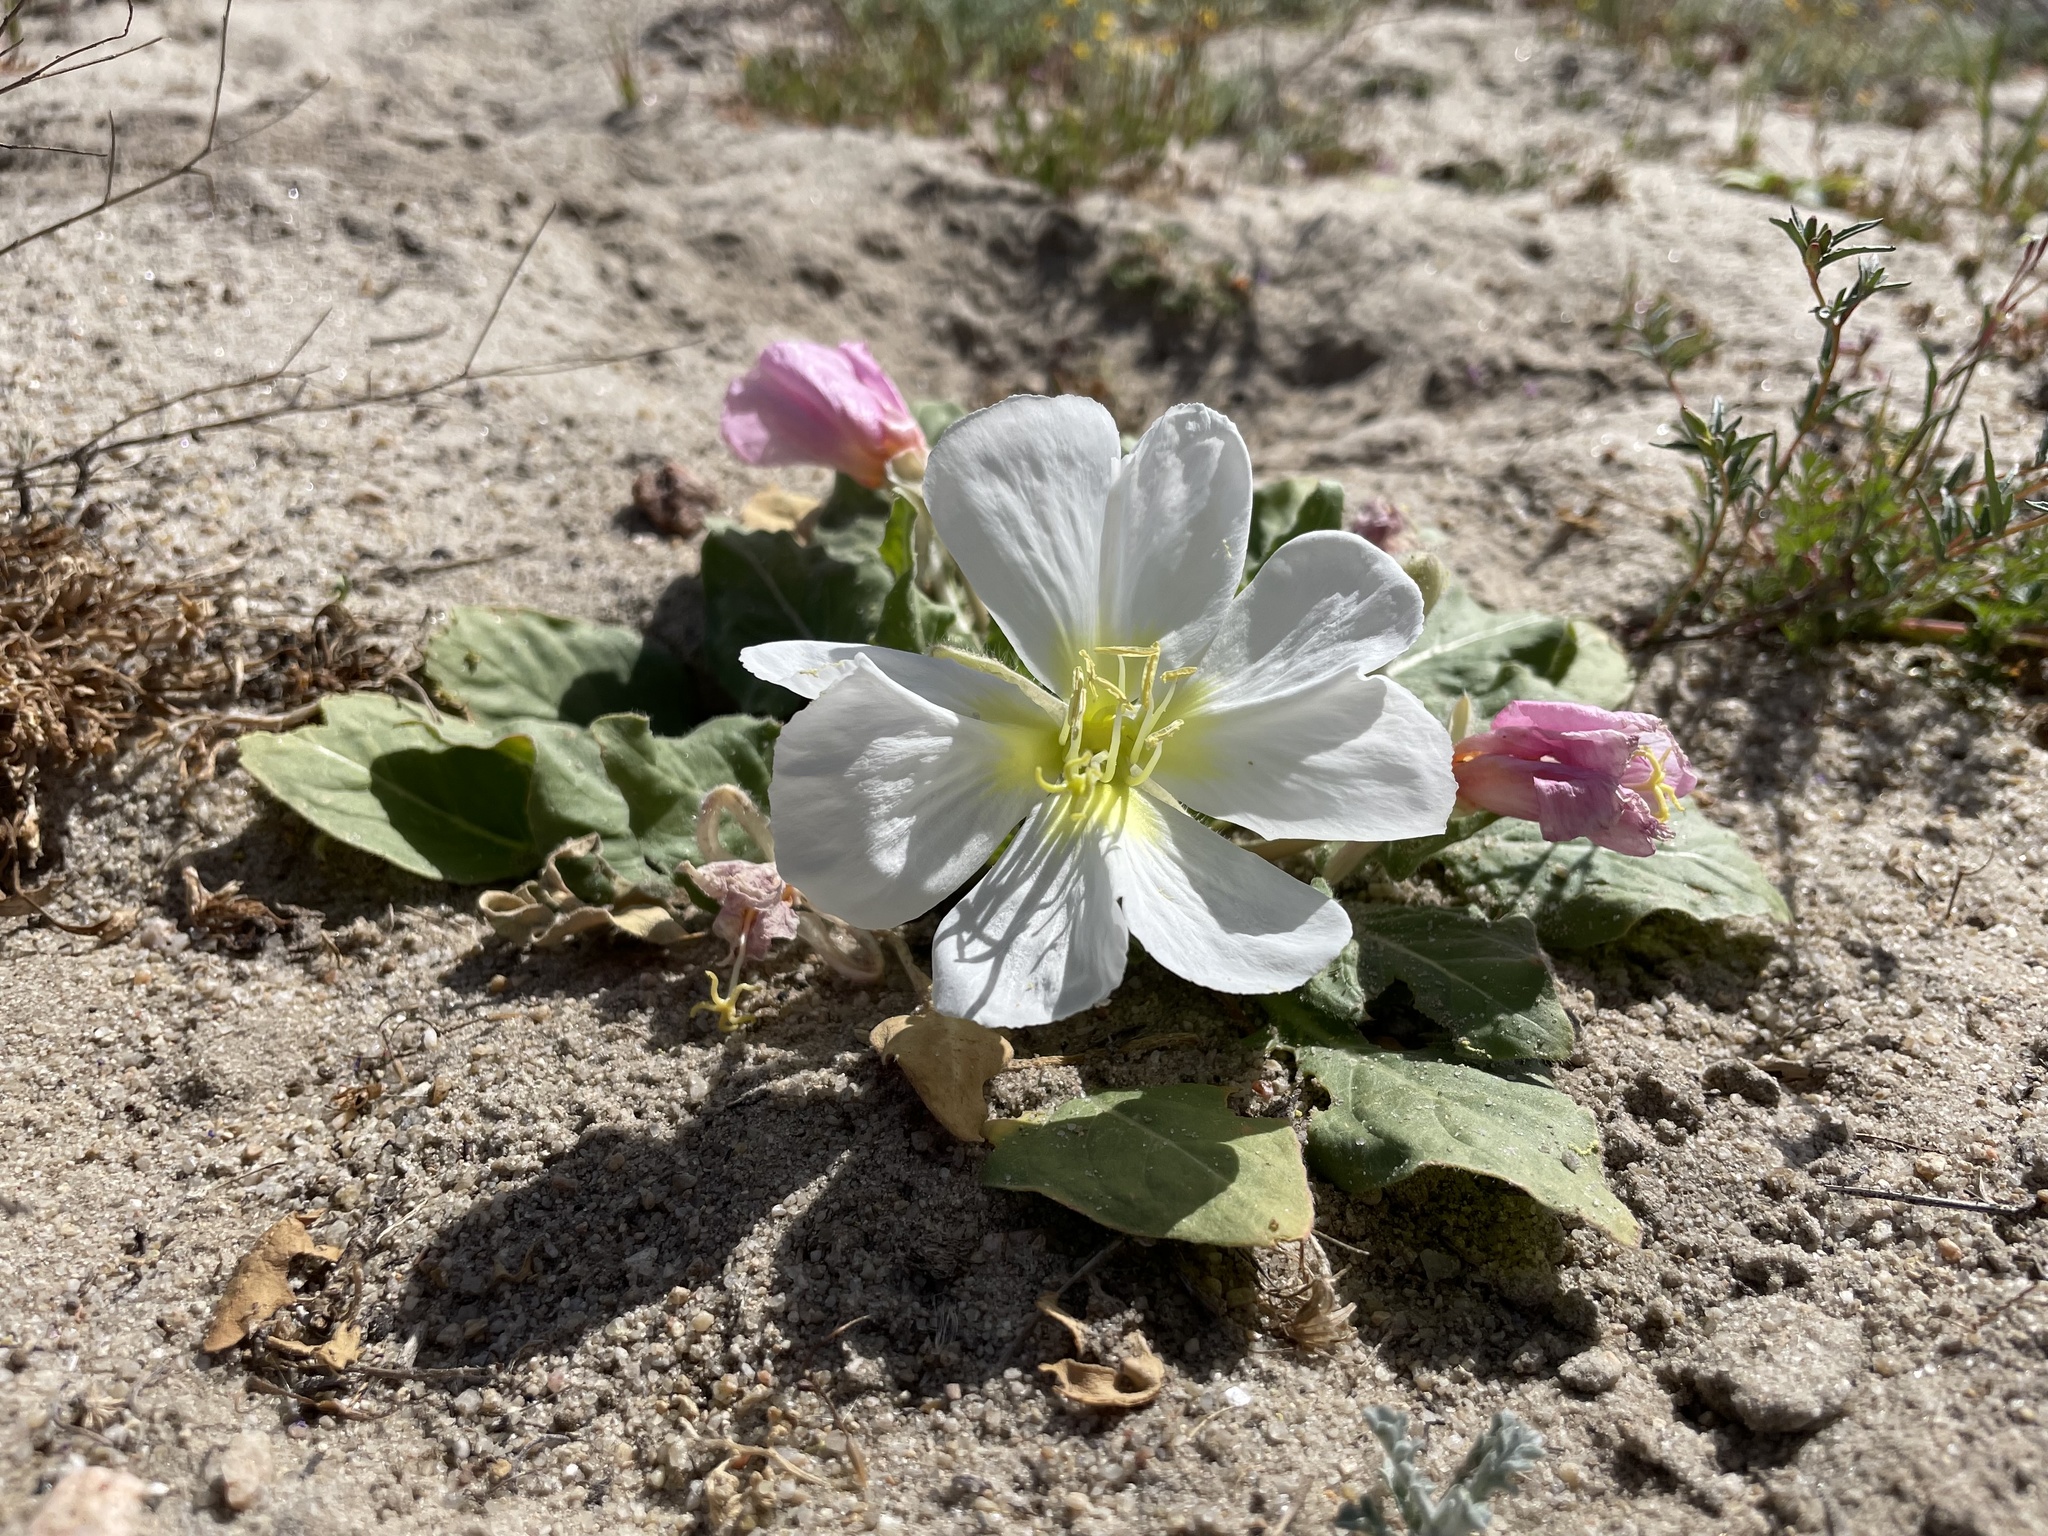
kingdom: Plantae
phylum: Tracheophyta
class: Magnoliopsida
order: Myrtales
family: Onagraceae
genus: Oenothera
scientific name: Oenothera deltoides
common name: Basket evening-primrose
